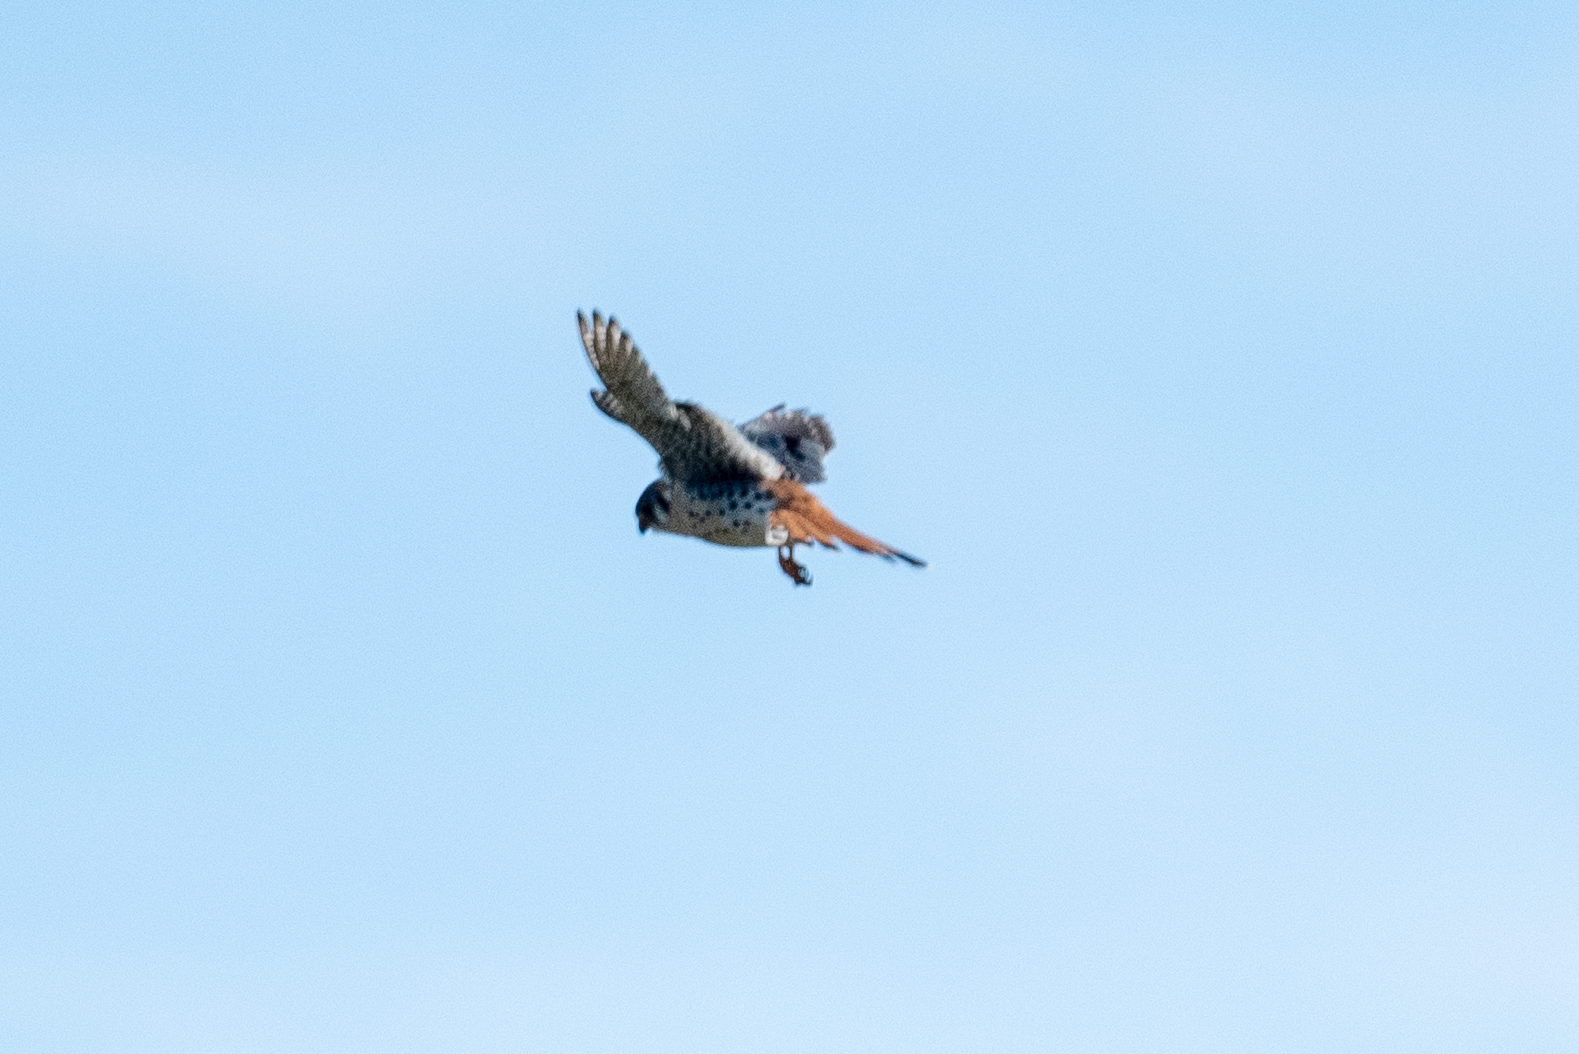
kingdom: Animalia
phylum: Chordata
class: Aves
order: Falconiformes
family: Falconidae
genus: Falco
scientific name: Falco sparverius
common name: American kestrel
